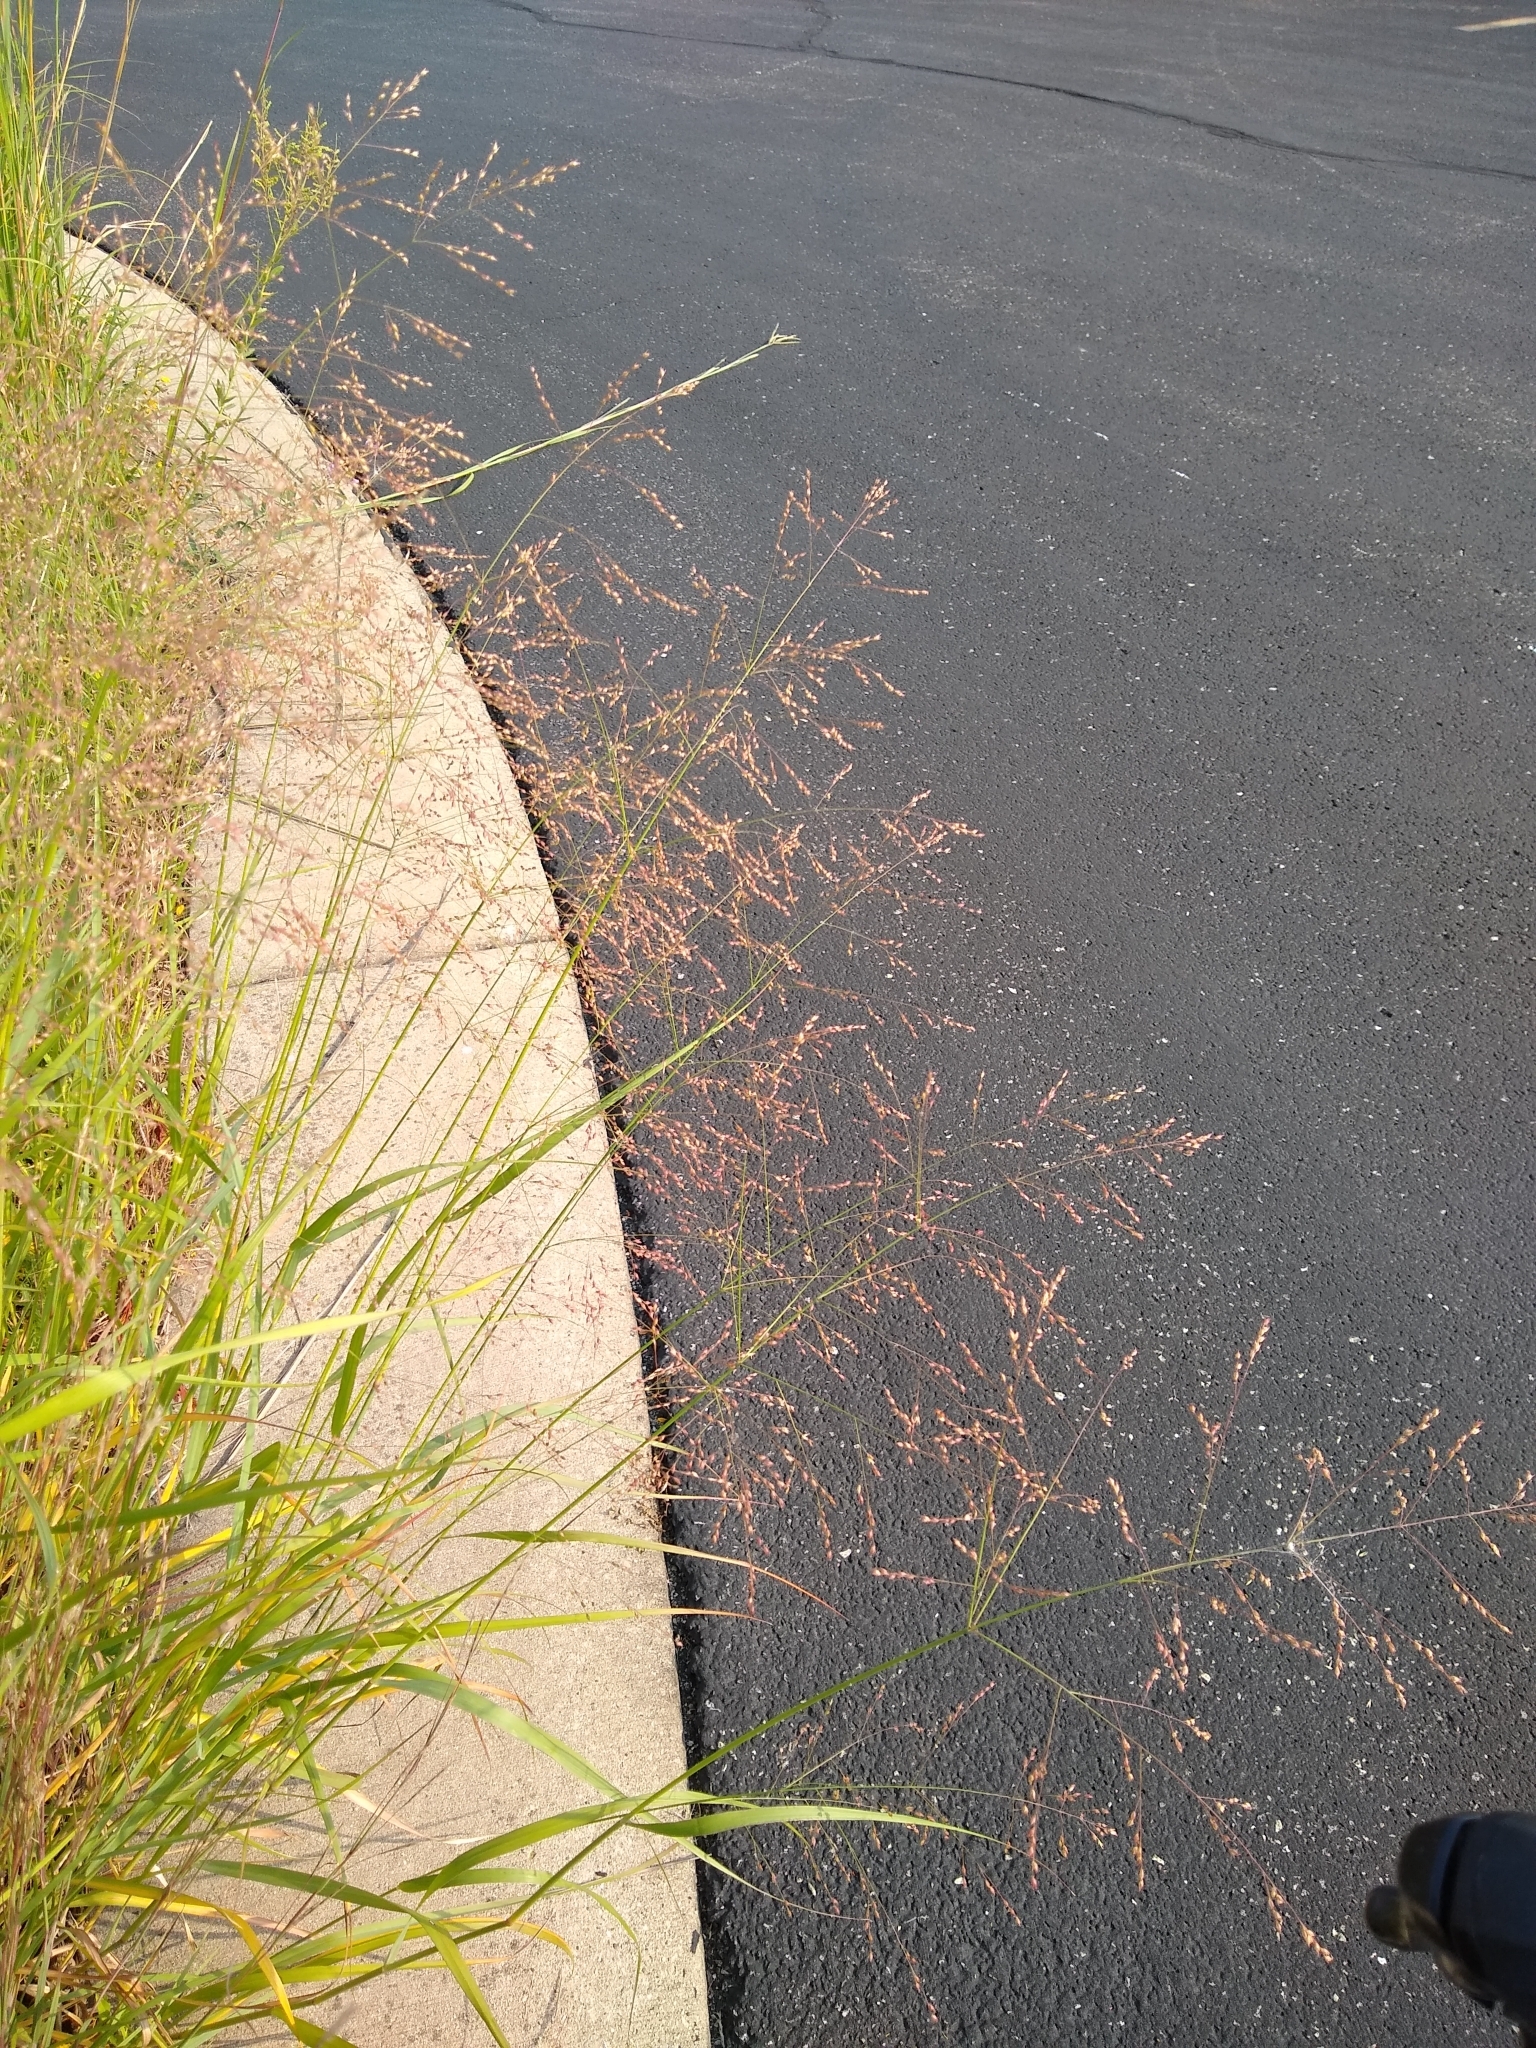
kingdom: Plantae
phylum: Tracheophyta
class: Liliopsida
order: Poales
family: Poaceae
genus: Panicum
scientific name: Panicum virgatum
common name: Switchgrass
